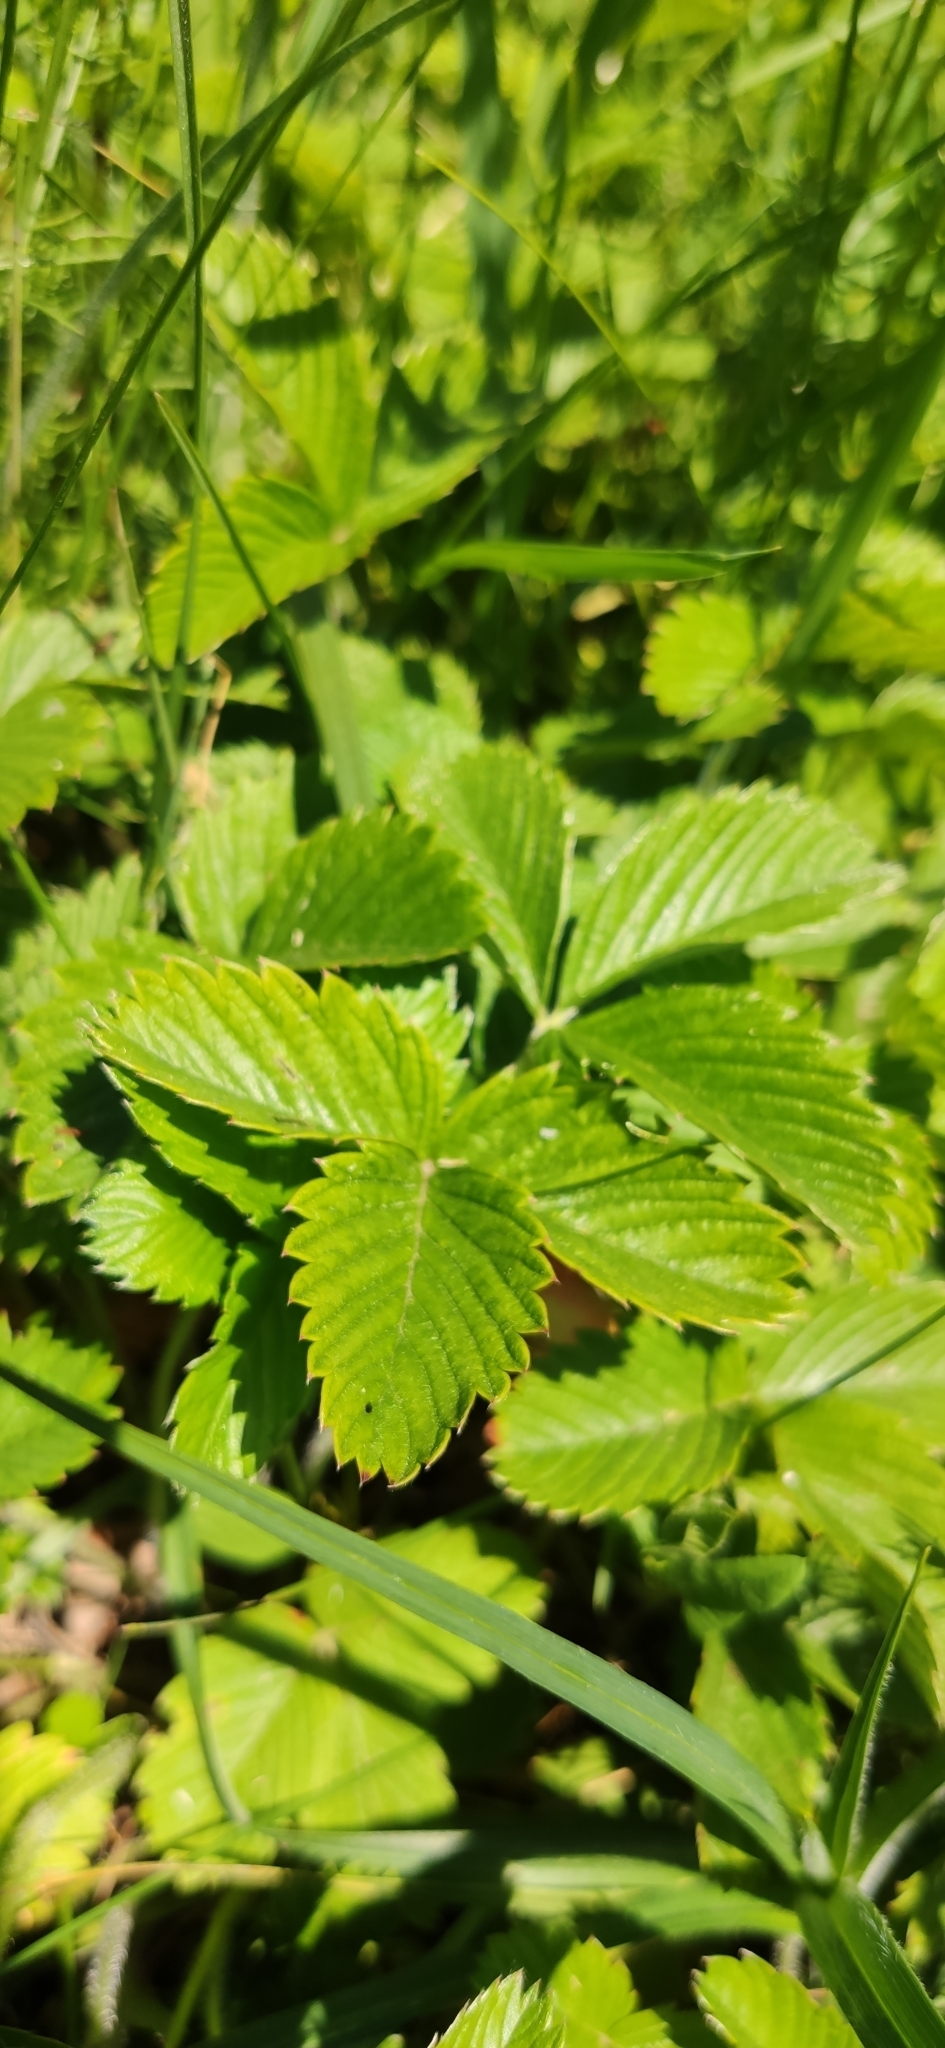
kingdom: Plantae
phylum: Tracheophyta
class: Magnoliopsida
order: Rosales
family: Rosaceae
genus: Fragaria
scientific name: Fragaria viridis
